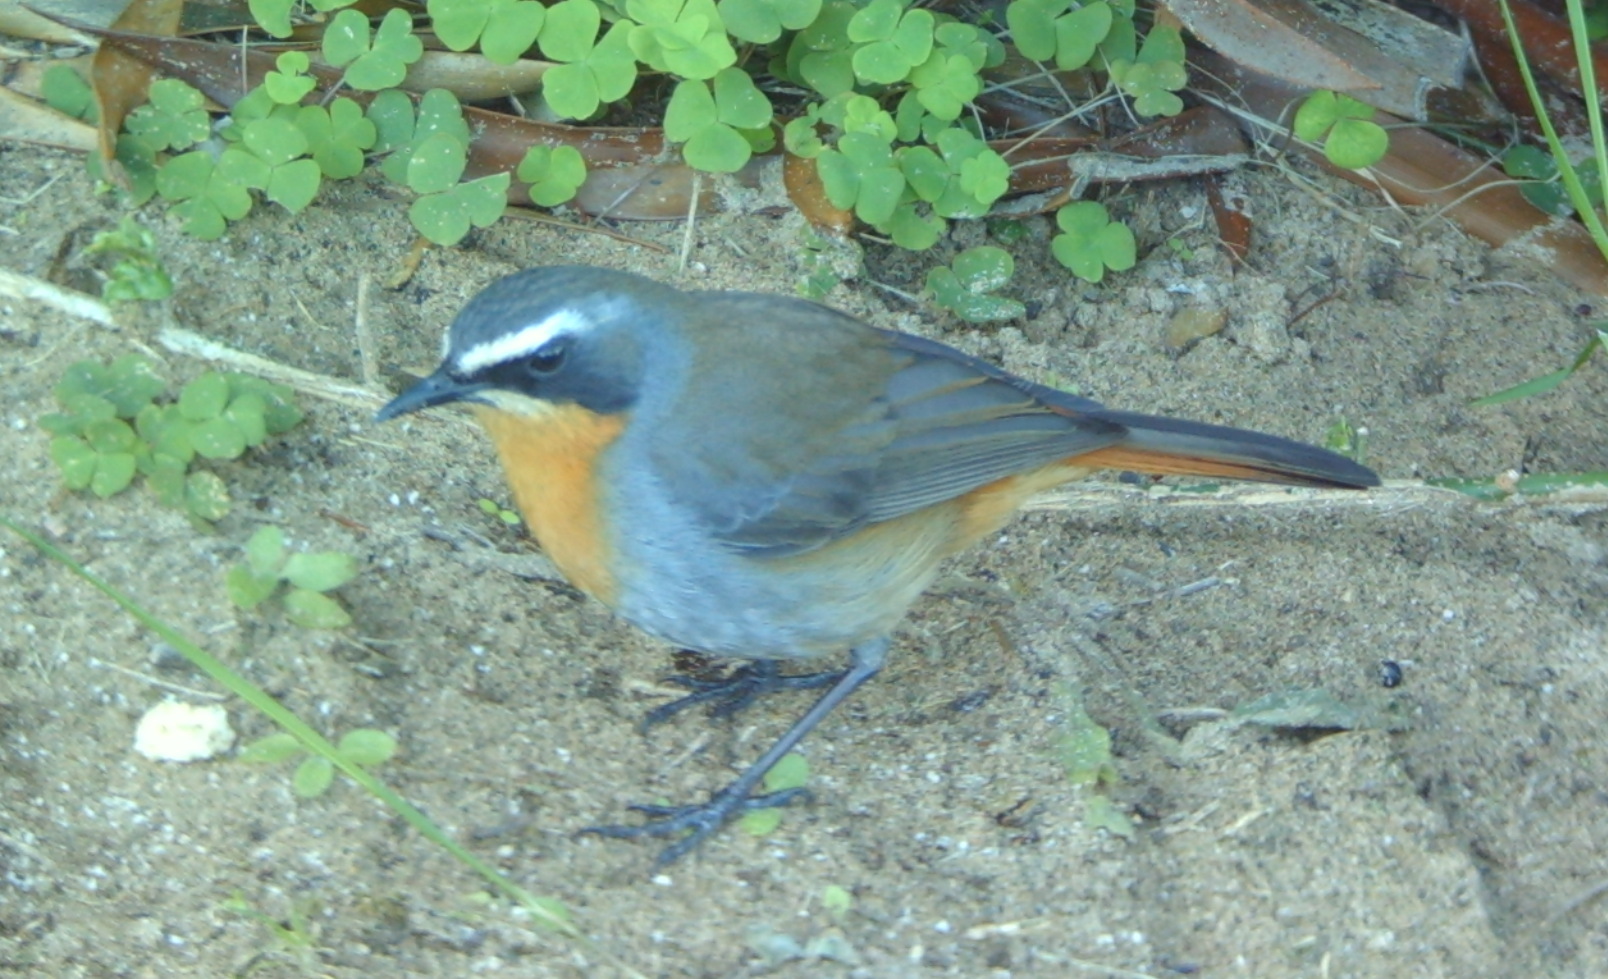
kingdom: Animalia
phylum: Chordata
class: Aves
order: Passeriformes
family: Muscicapidae
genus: Cossypha
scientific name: Cossypha caffra
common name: Cape robin-chat
